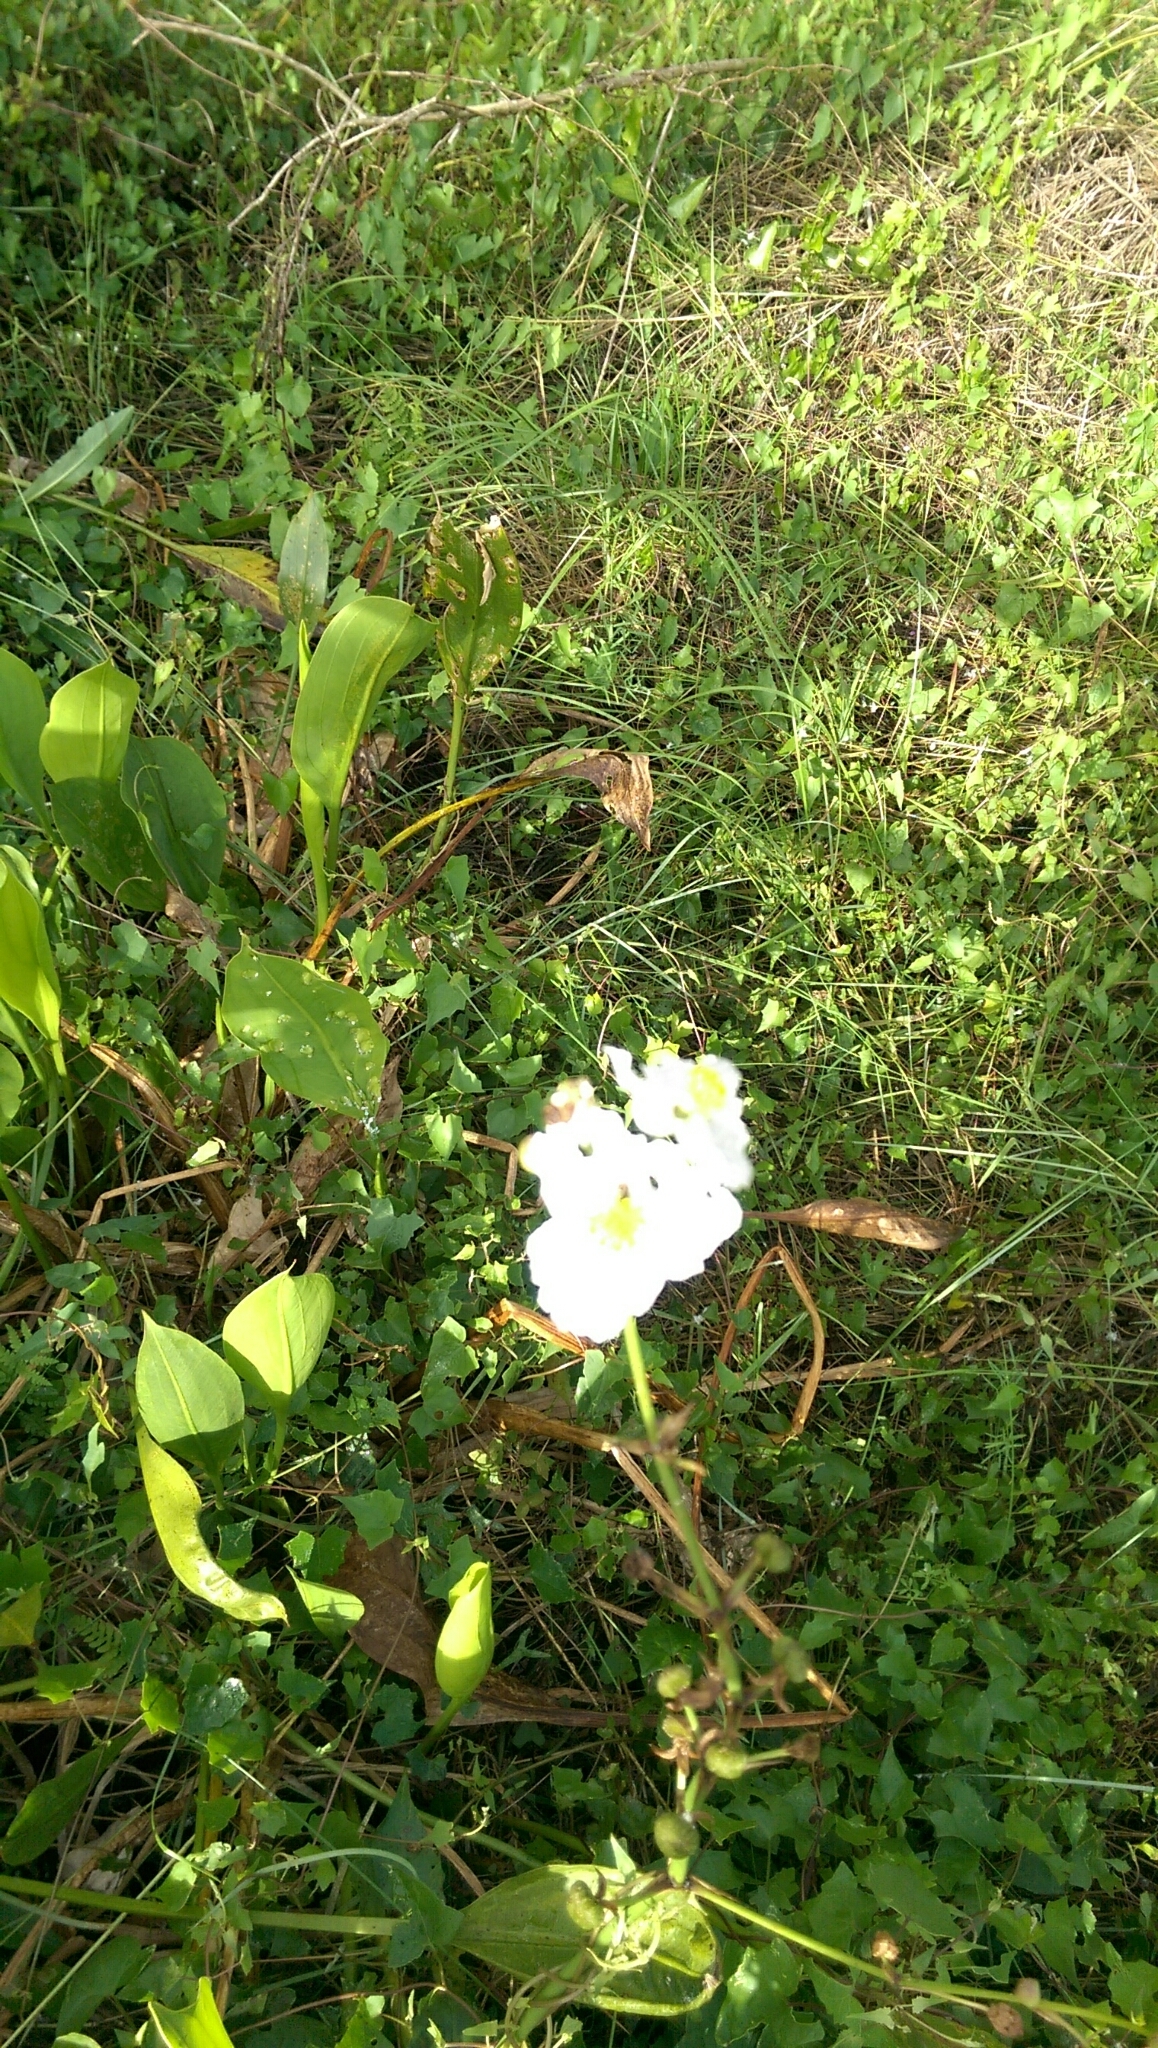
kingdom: Plantae
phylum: Tracheophyta
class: Liliopsida
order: Alismatales
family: Alismataceae
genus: Sagittaria
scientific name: Sagittaria lancifolia
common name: Lance-leaf arrowhead
